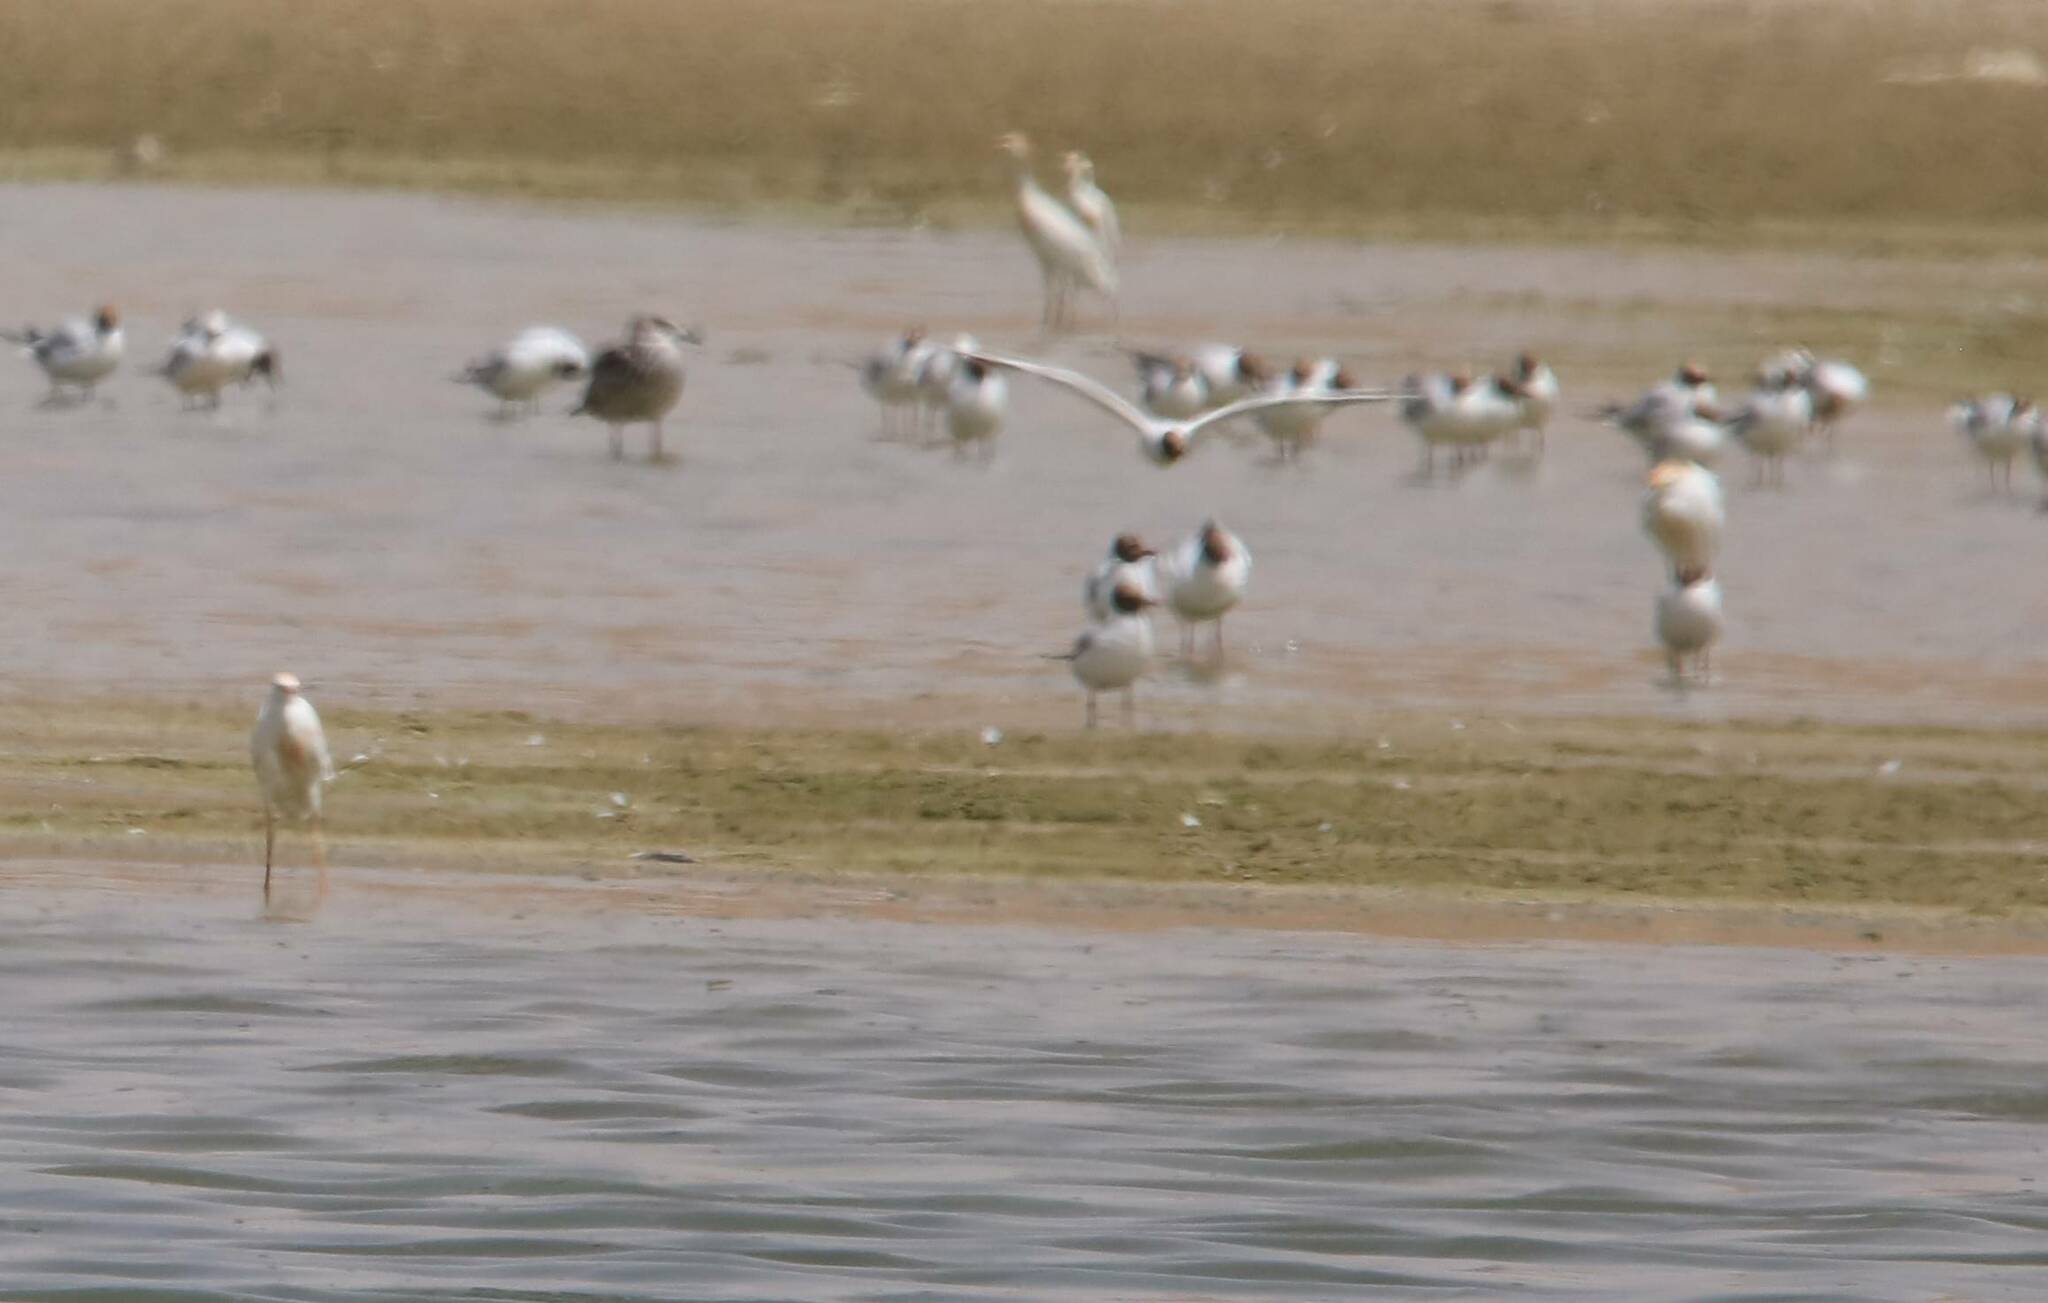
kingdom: Animalia
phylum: Chordata
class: Aves
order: Charadriiformes
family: Laridae
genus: Chroicocephalus
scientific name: Chroicocephalus ridibundus
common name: Black-headed gull
